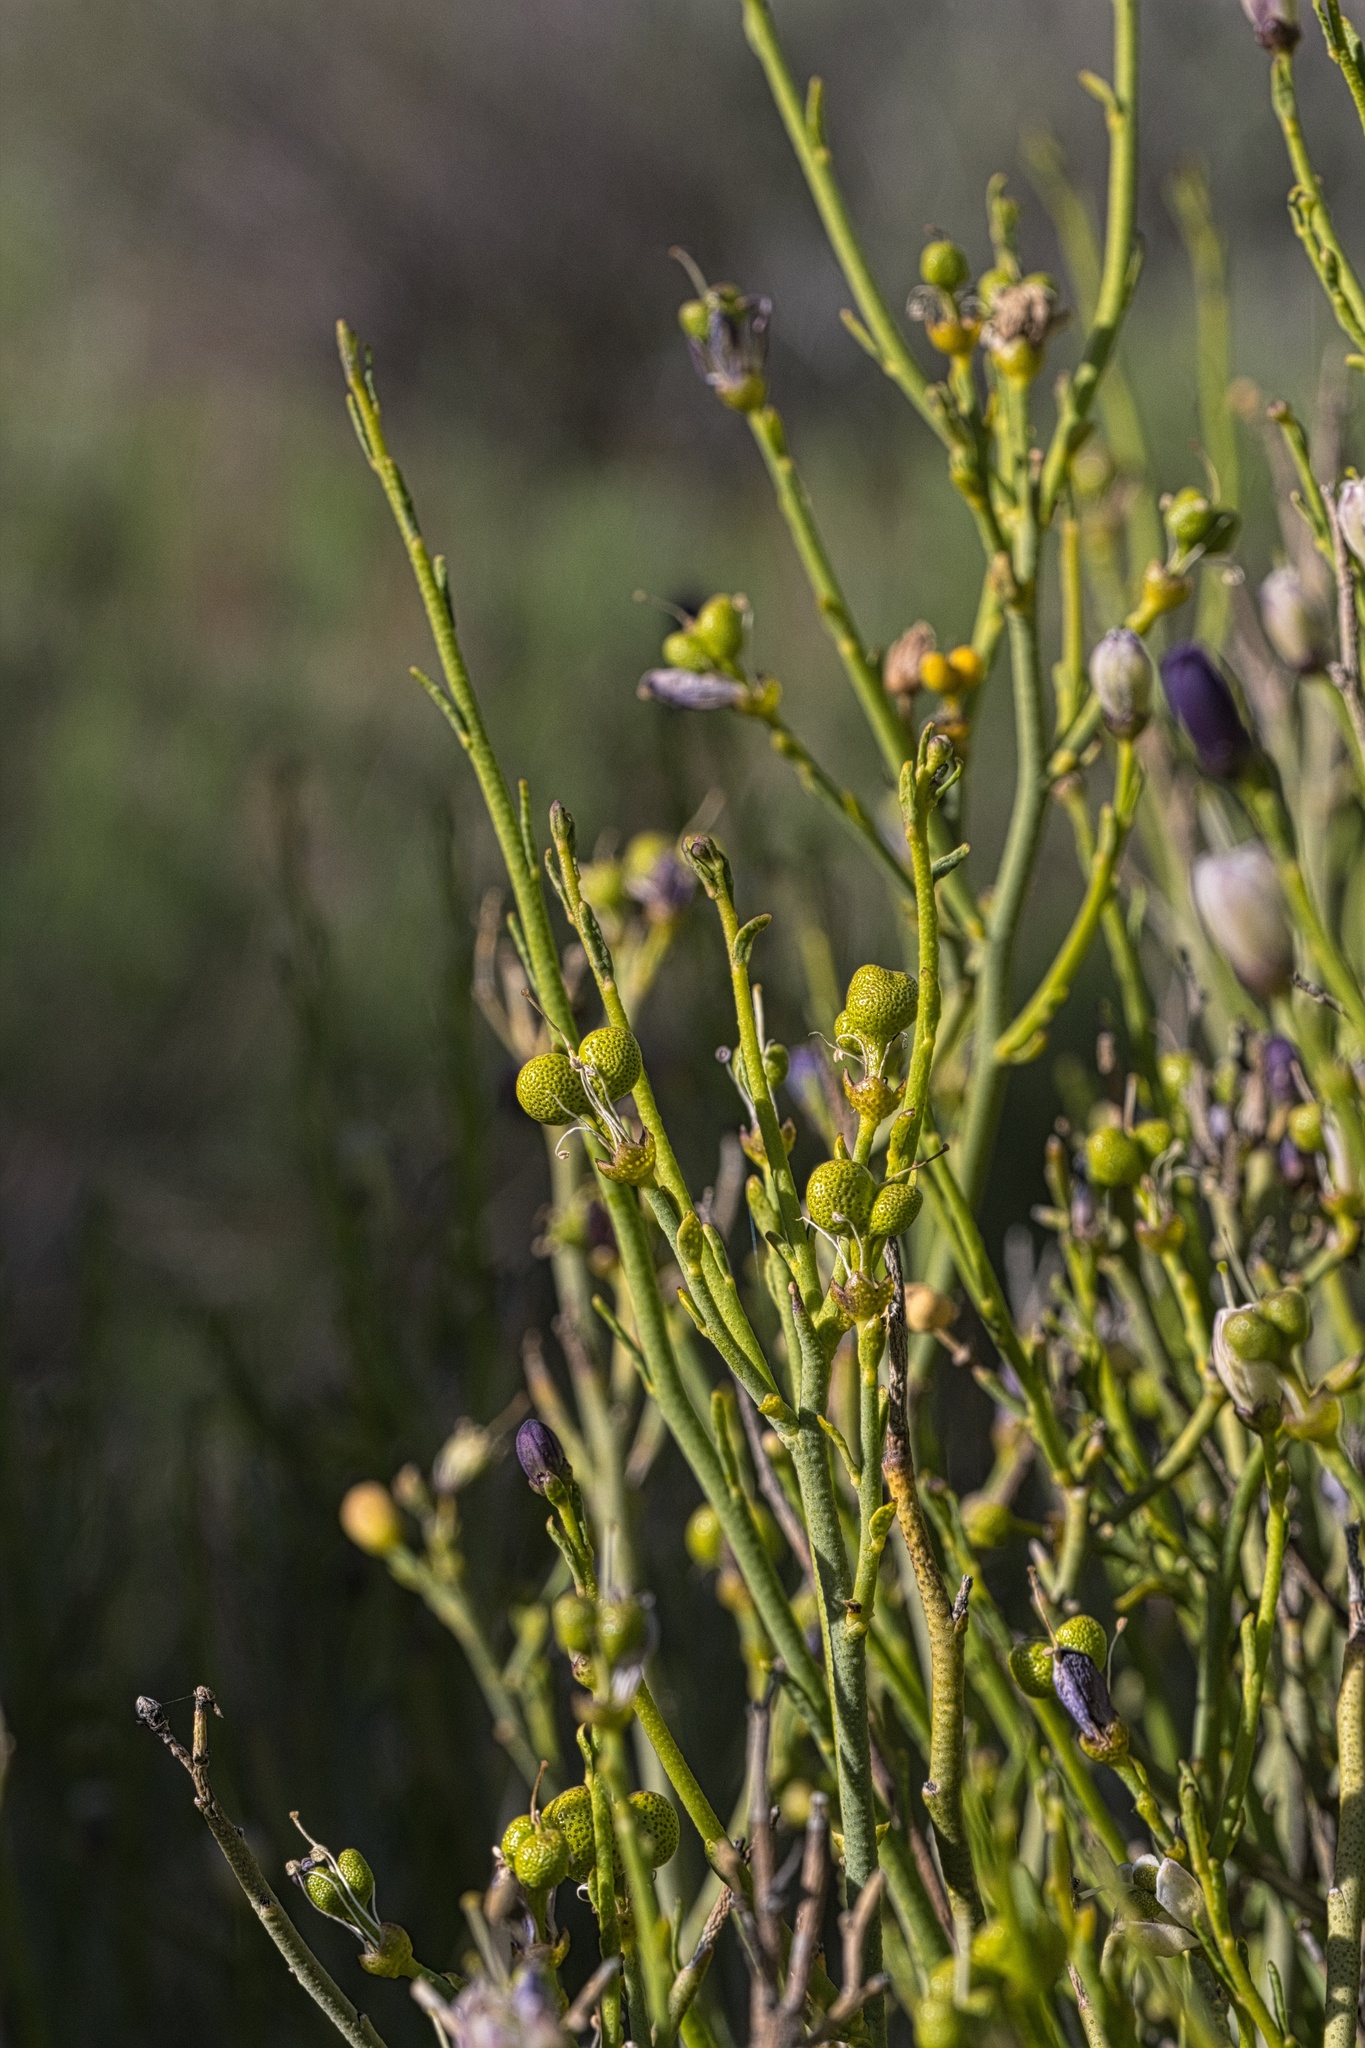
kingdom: Plantae
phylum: Tracheophyta
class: Magnoliopsida
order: Sapindales
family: Rutaceae
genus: Thamnosma
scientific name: Thamnosma montana
